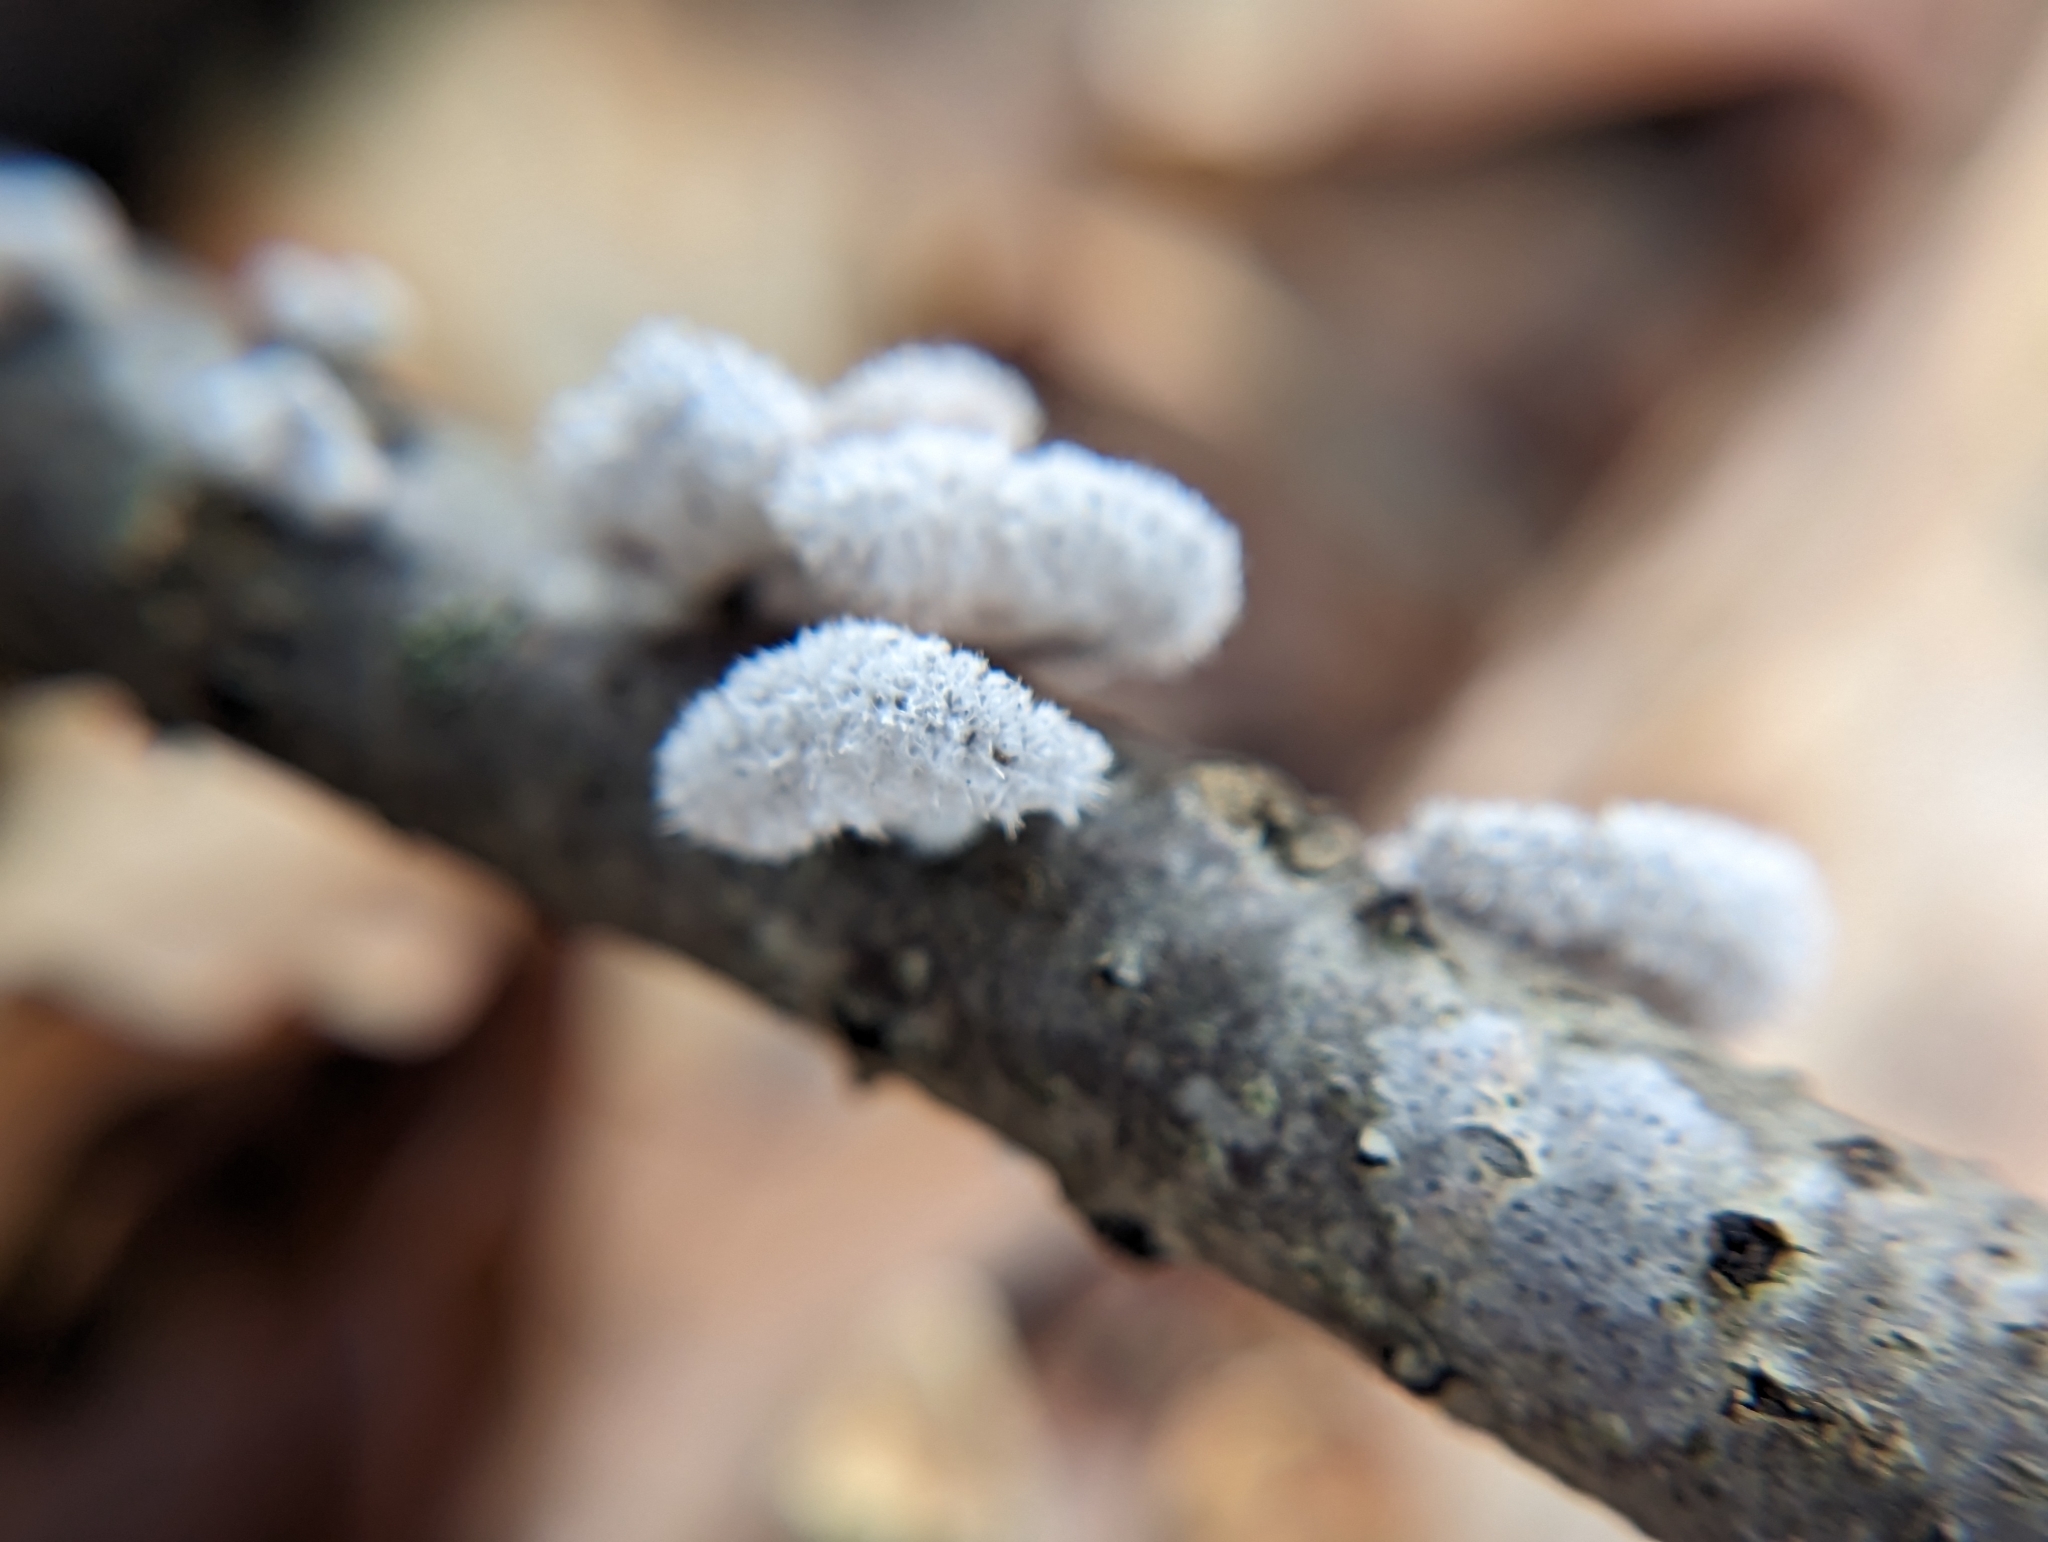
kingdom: Fungi
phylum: Basidiomycota
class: Agaricomycetes
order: Agaricales
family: Schizophyllaceae
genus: Schizophyllum
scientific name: Schizophyllum commune
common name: Common porecrust
